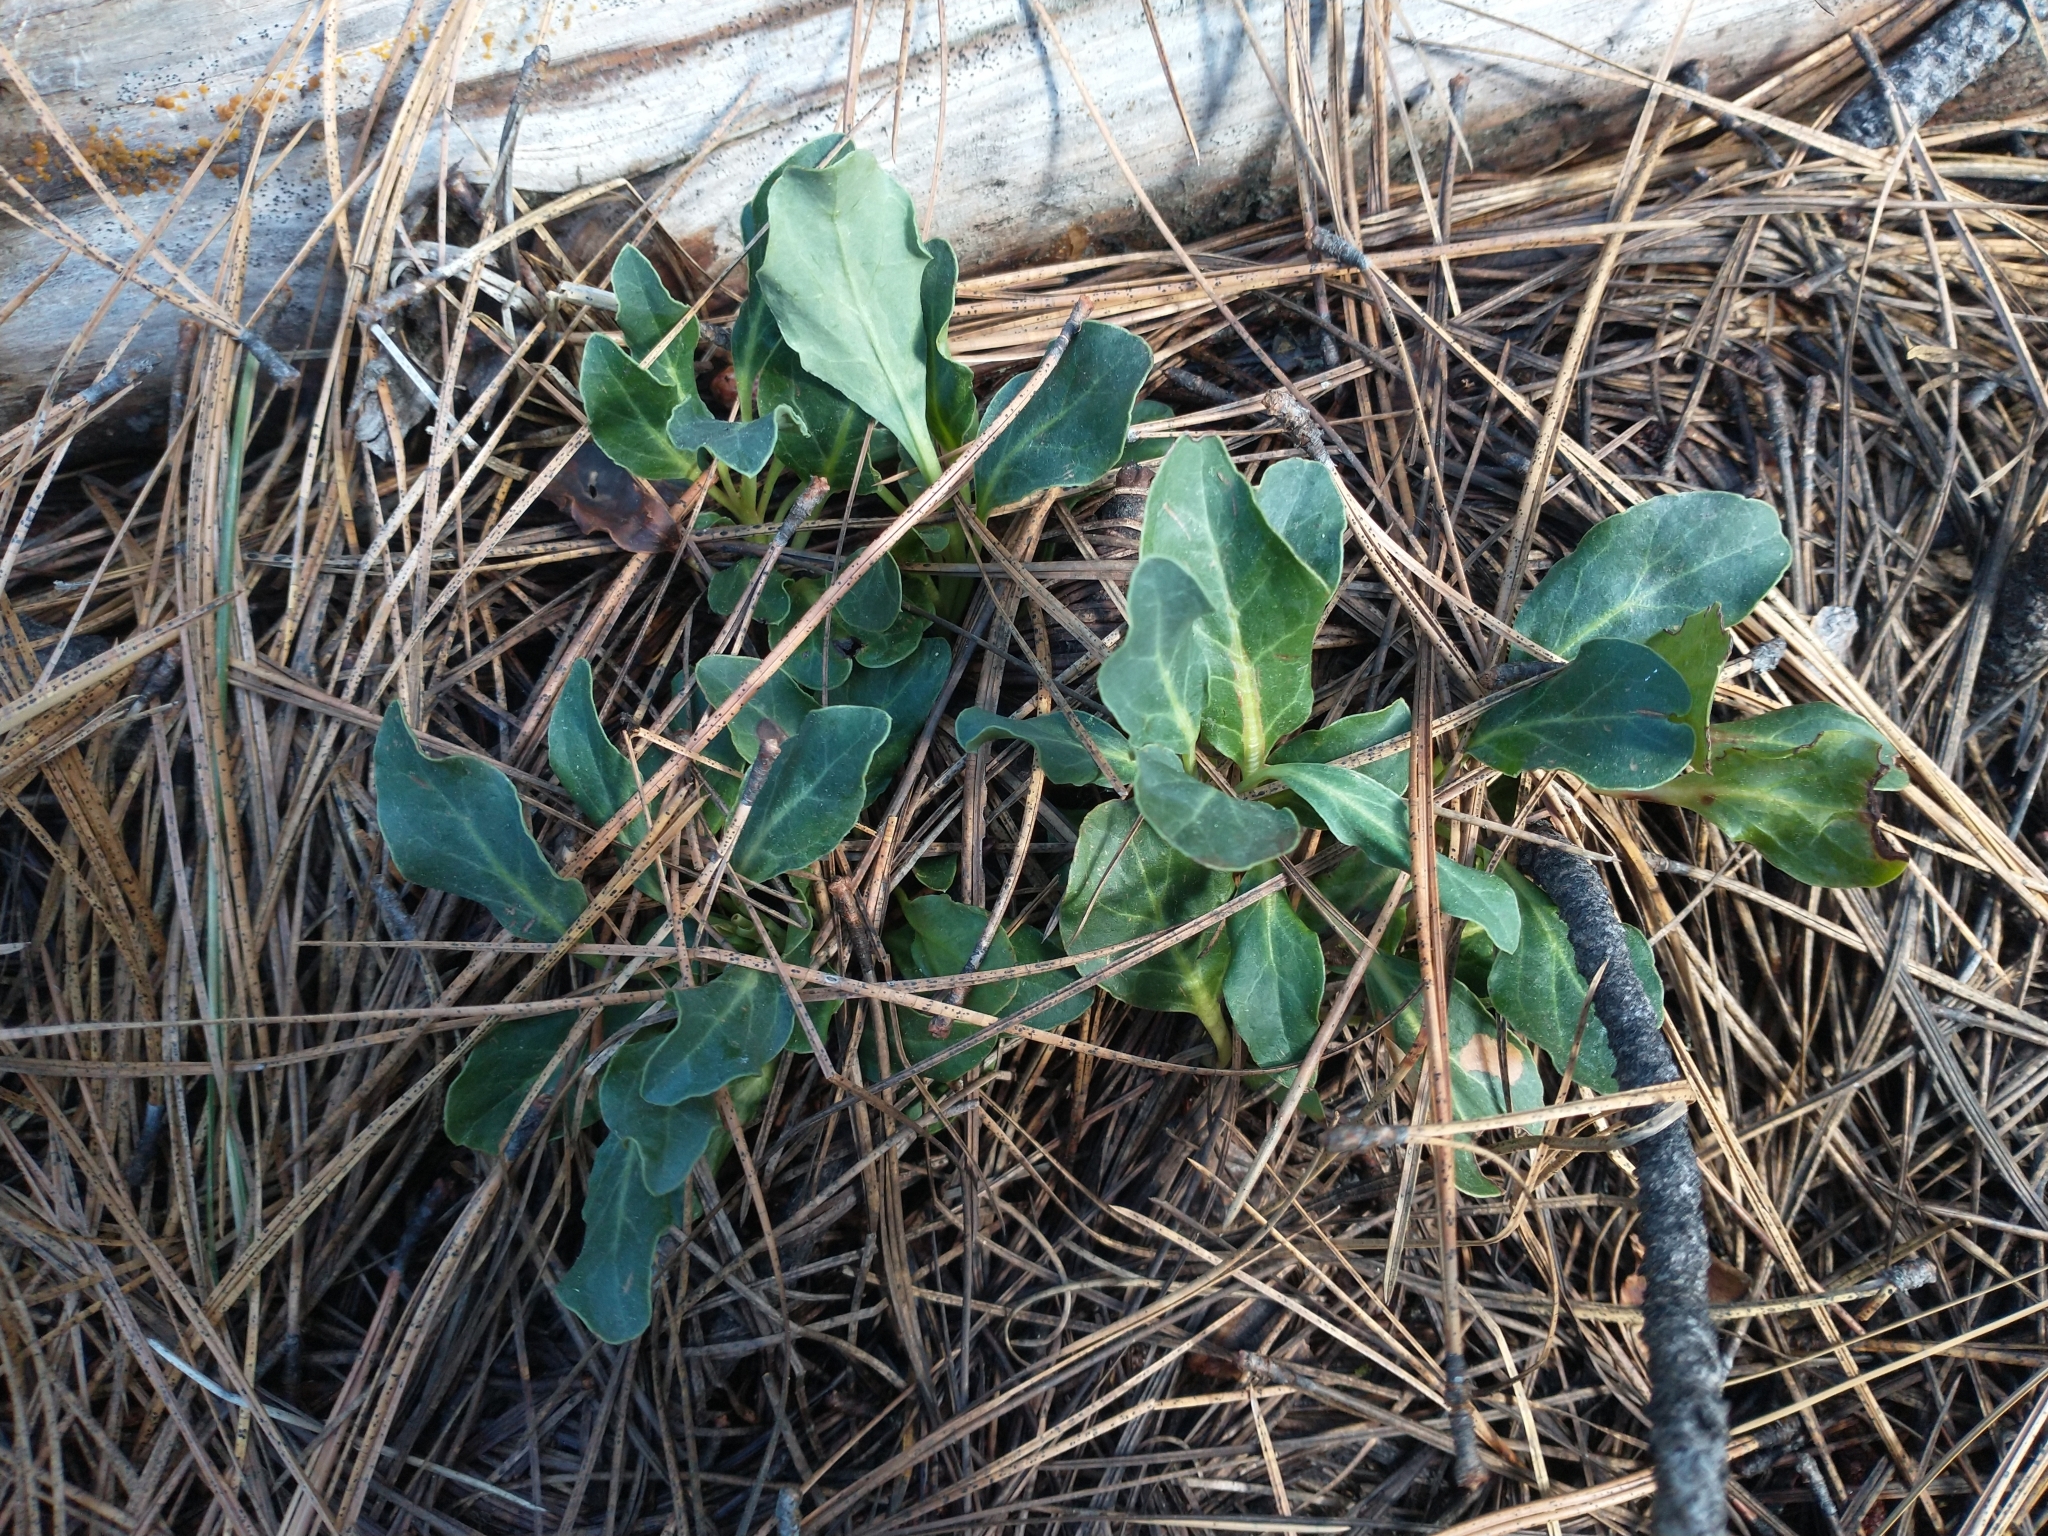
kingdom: Plantae
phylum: Tracheophyta
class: Magnoliopsida
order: Ericales
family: Ericaceae
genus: Pyrola
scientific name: Pyrola dentata
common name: Tooth-leaved wintergreen
